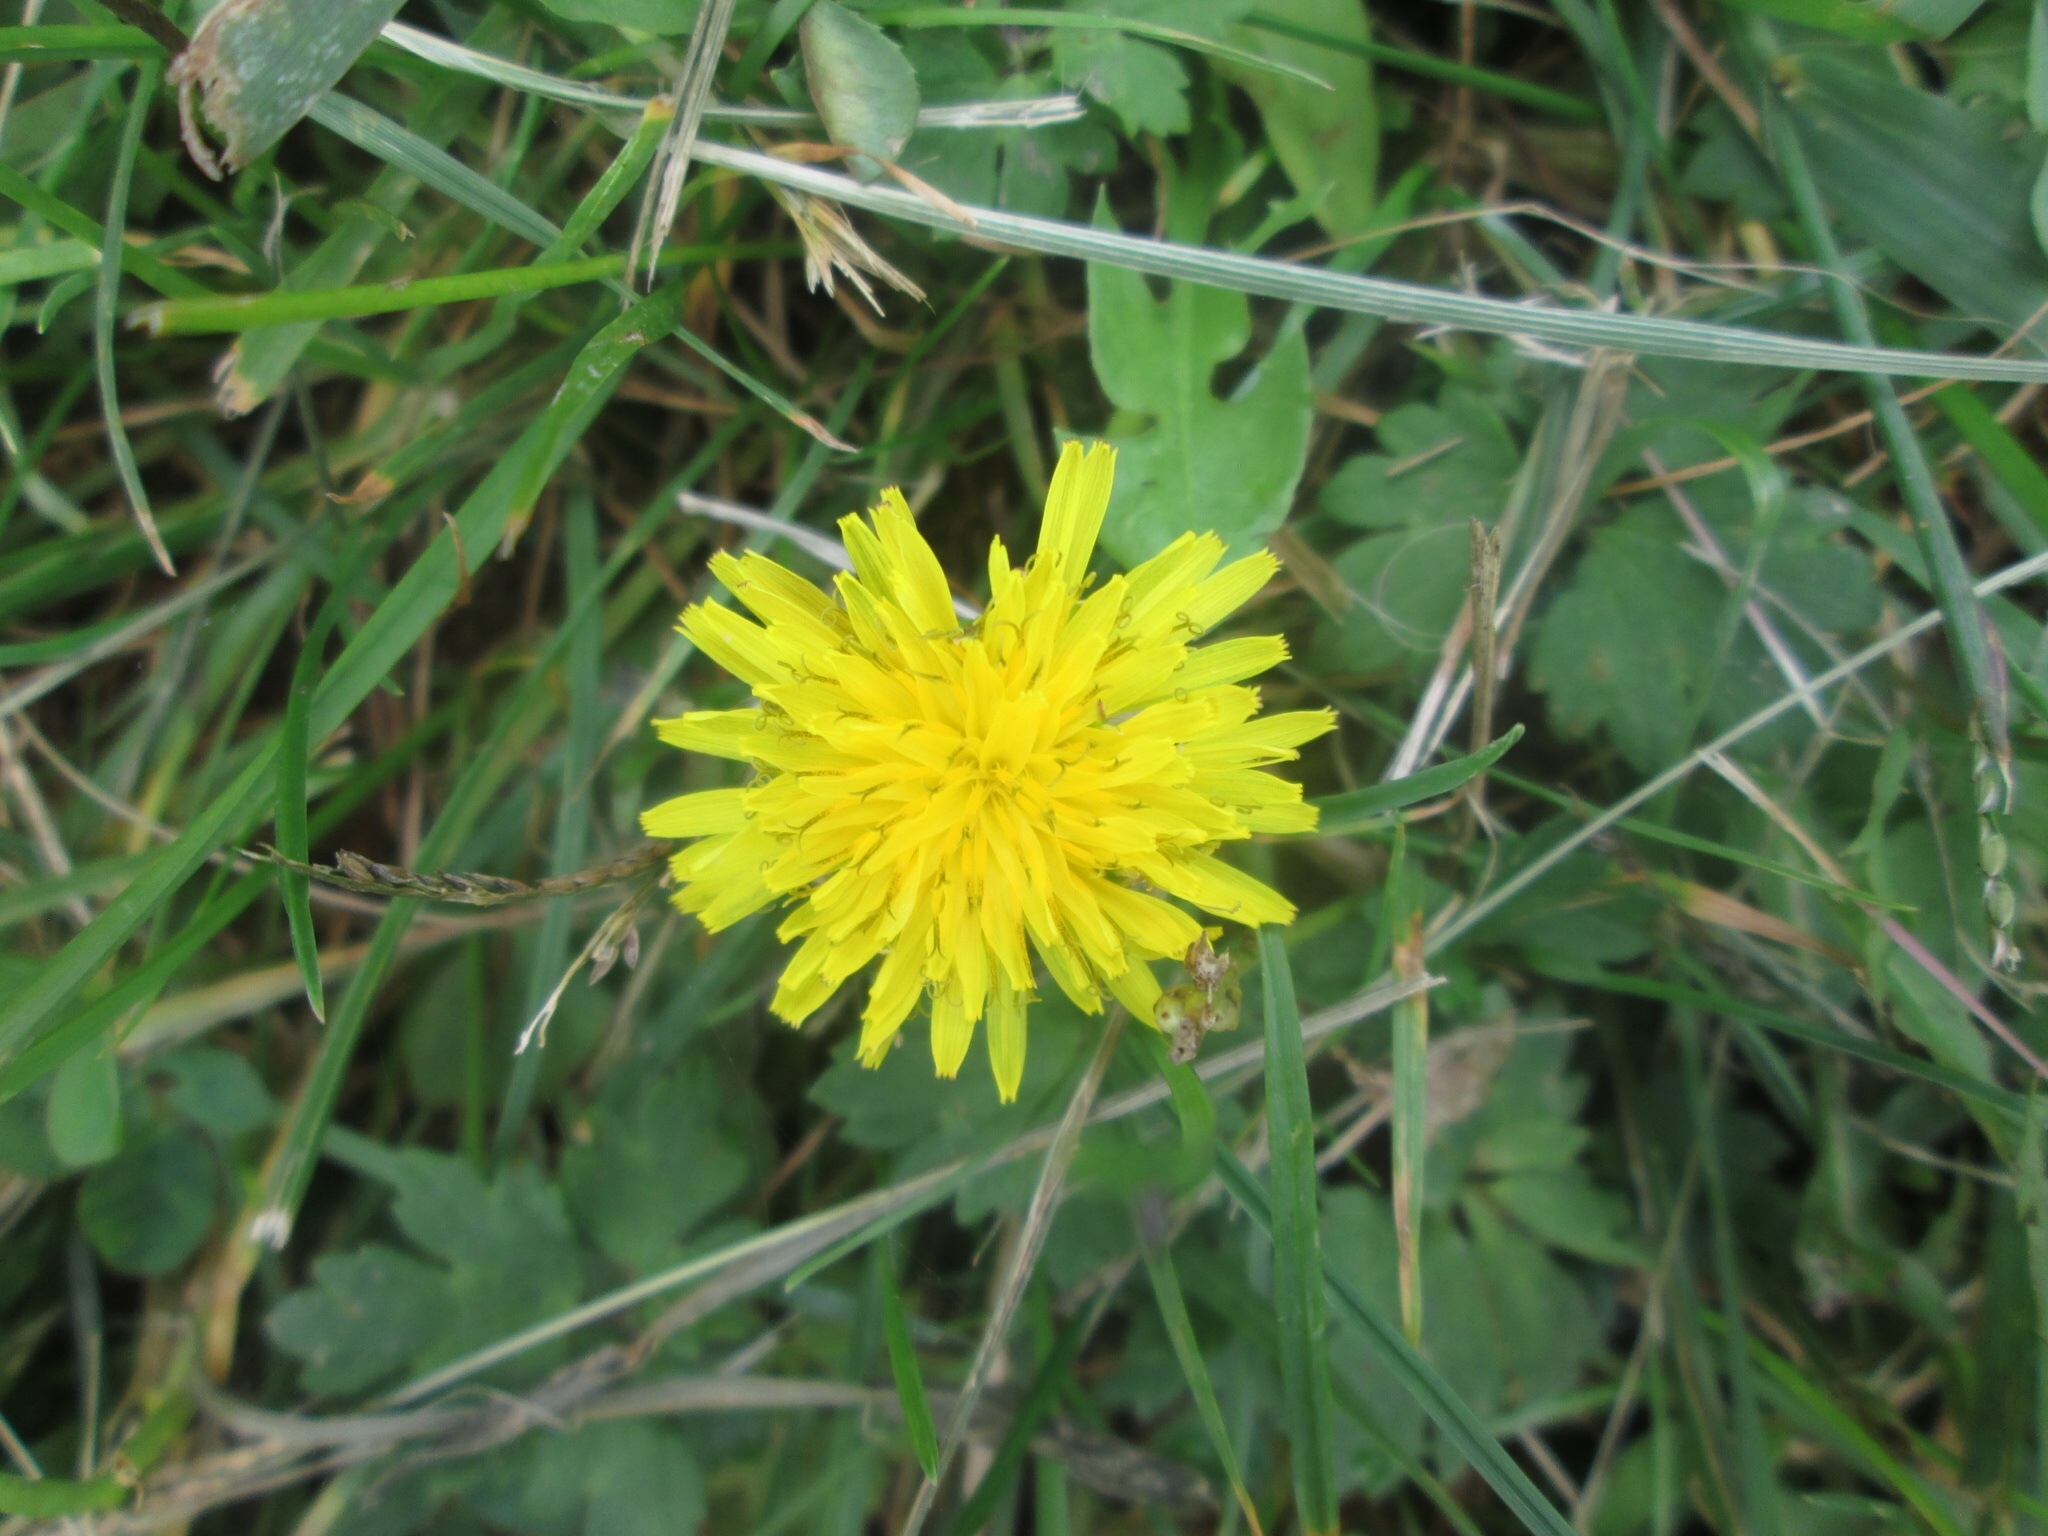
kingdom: Plantae
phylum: Tracheophyta
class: Magnoliopsida
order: Asterales
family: Asteraceae
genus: Taraxacum
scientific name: Taraxacum officinale
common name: Common dandelion
